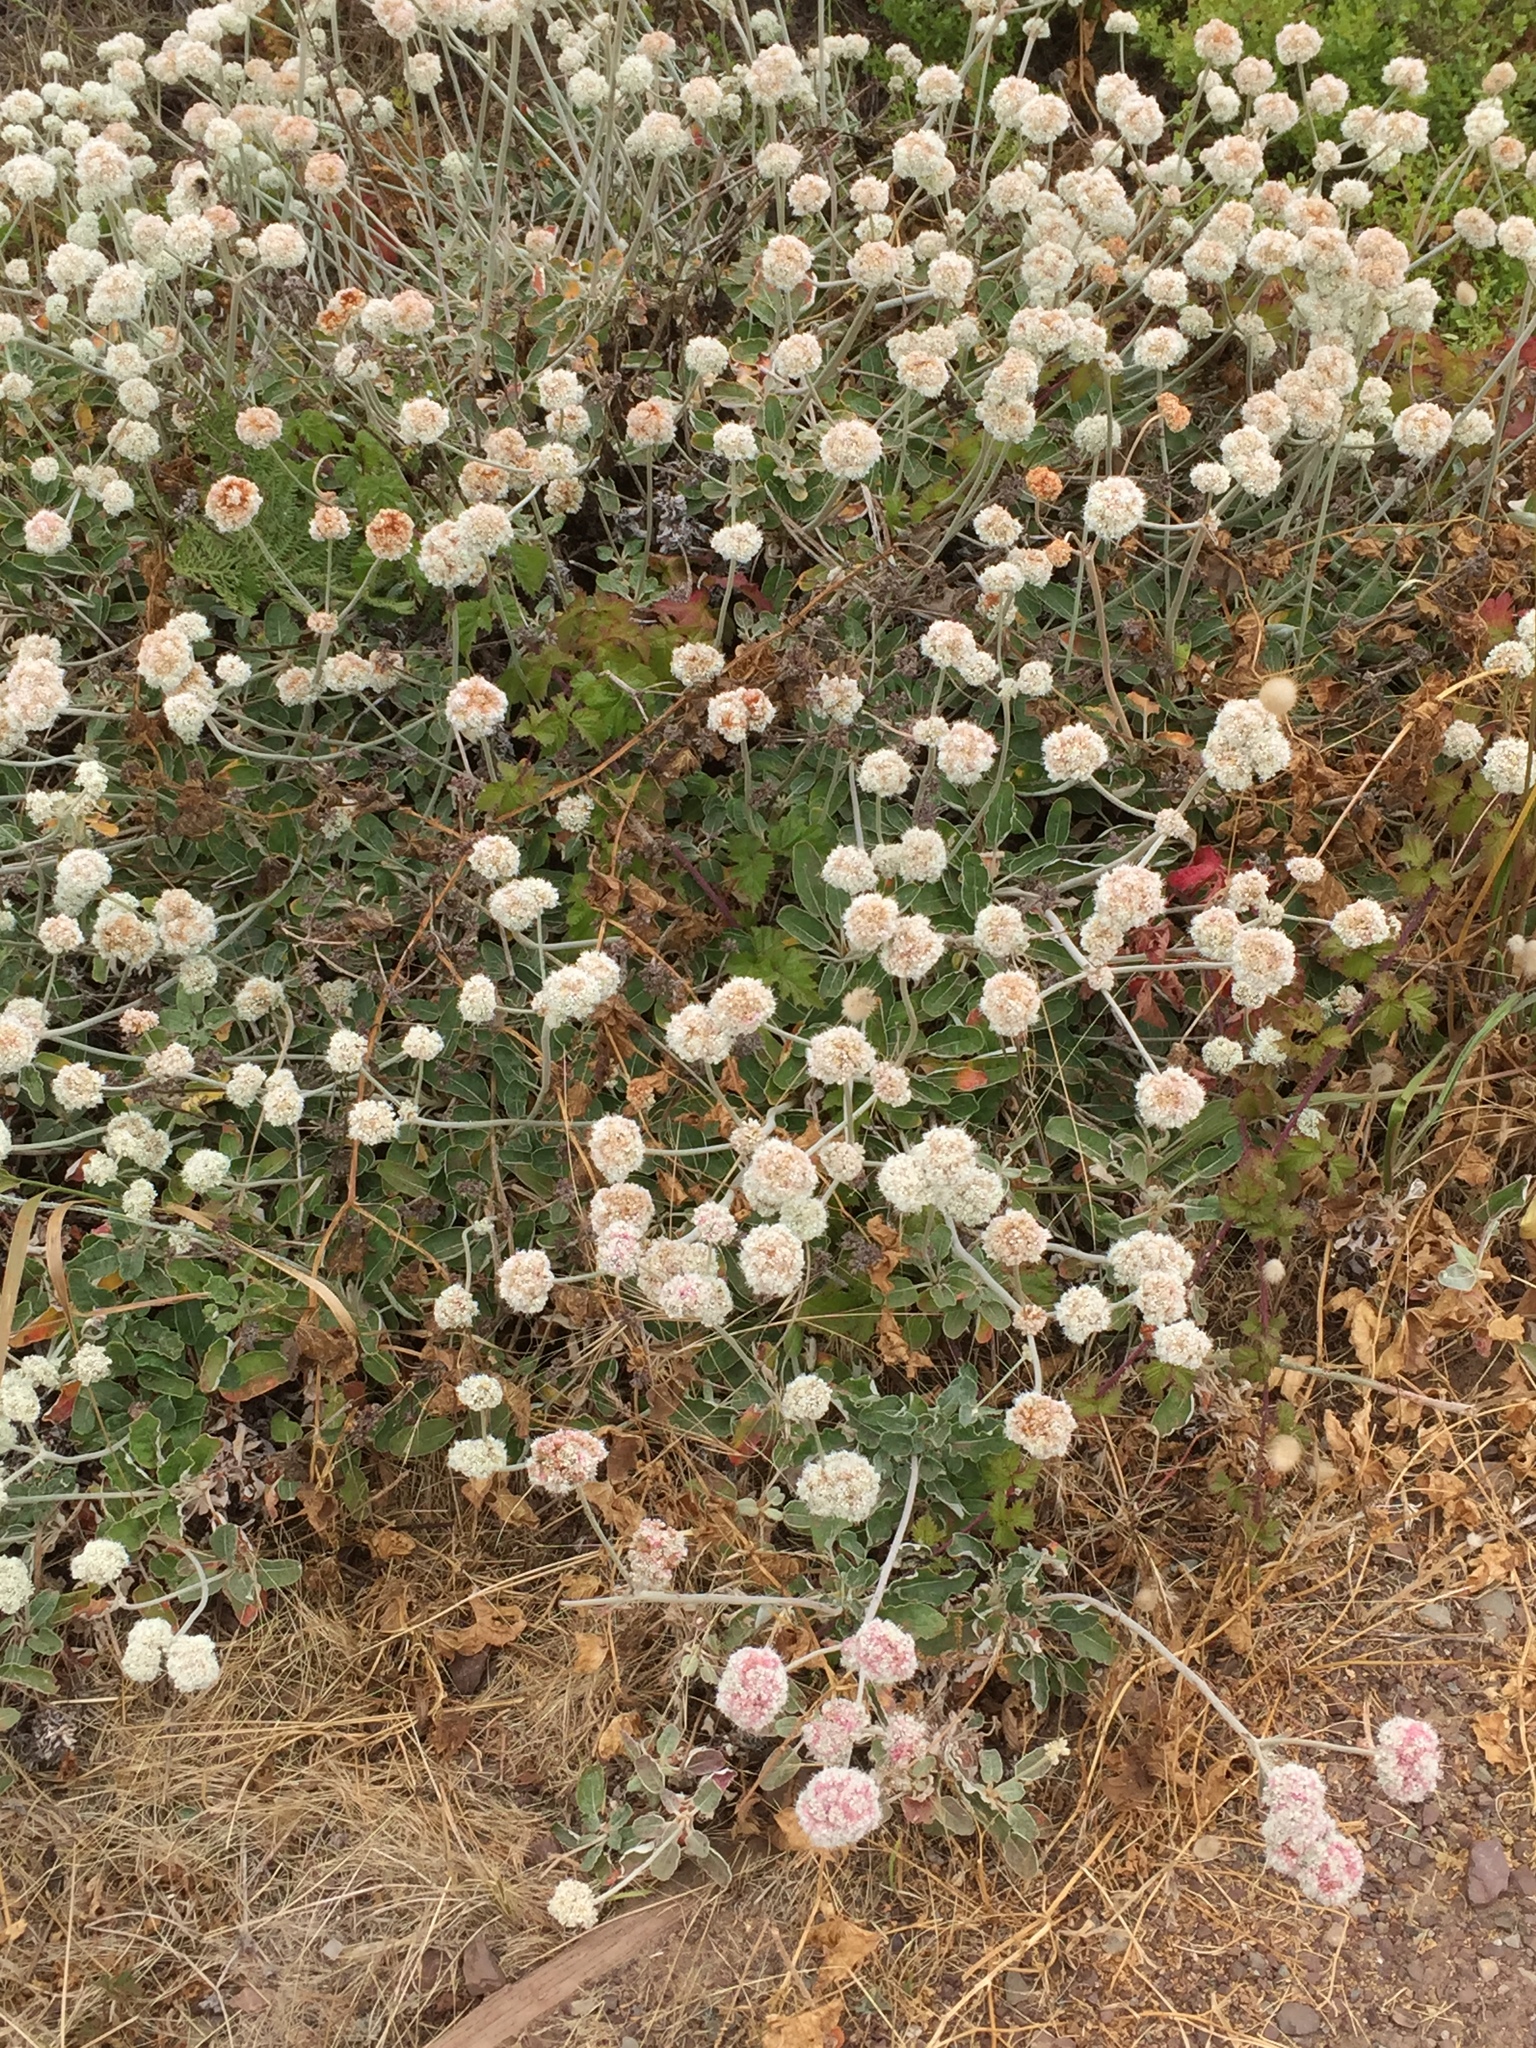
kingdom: Plantae
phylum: Tracheophyta
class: Magnoliopsida
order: Caryophyllales
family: Polygonaceae
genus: Eriogonum
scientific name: Eriogonum latifolium
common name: Seaside wild buckwheat
